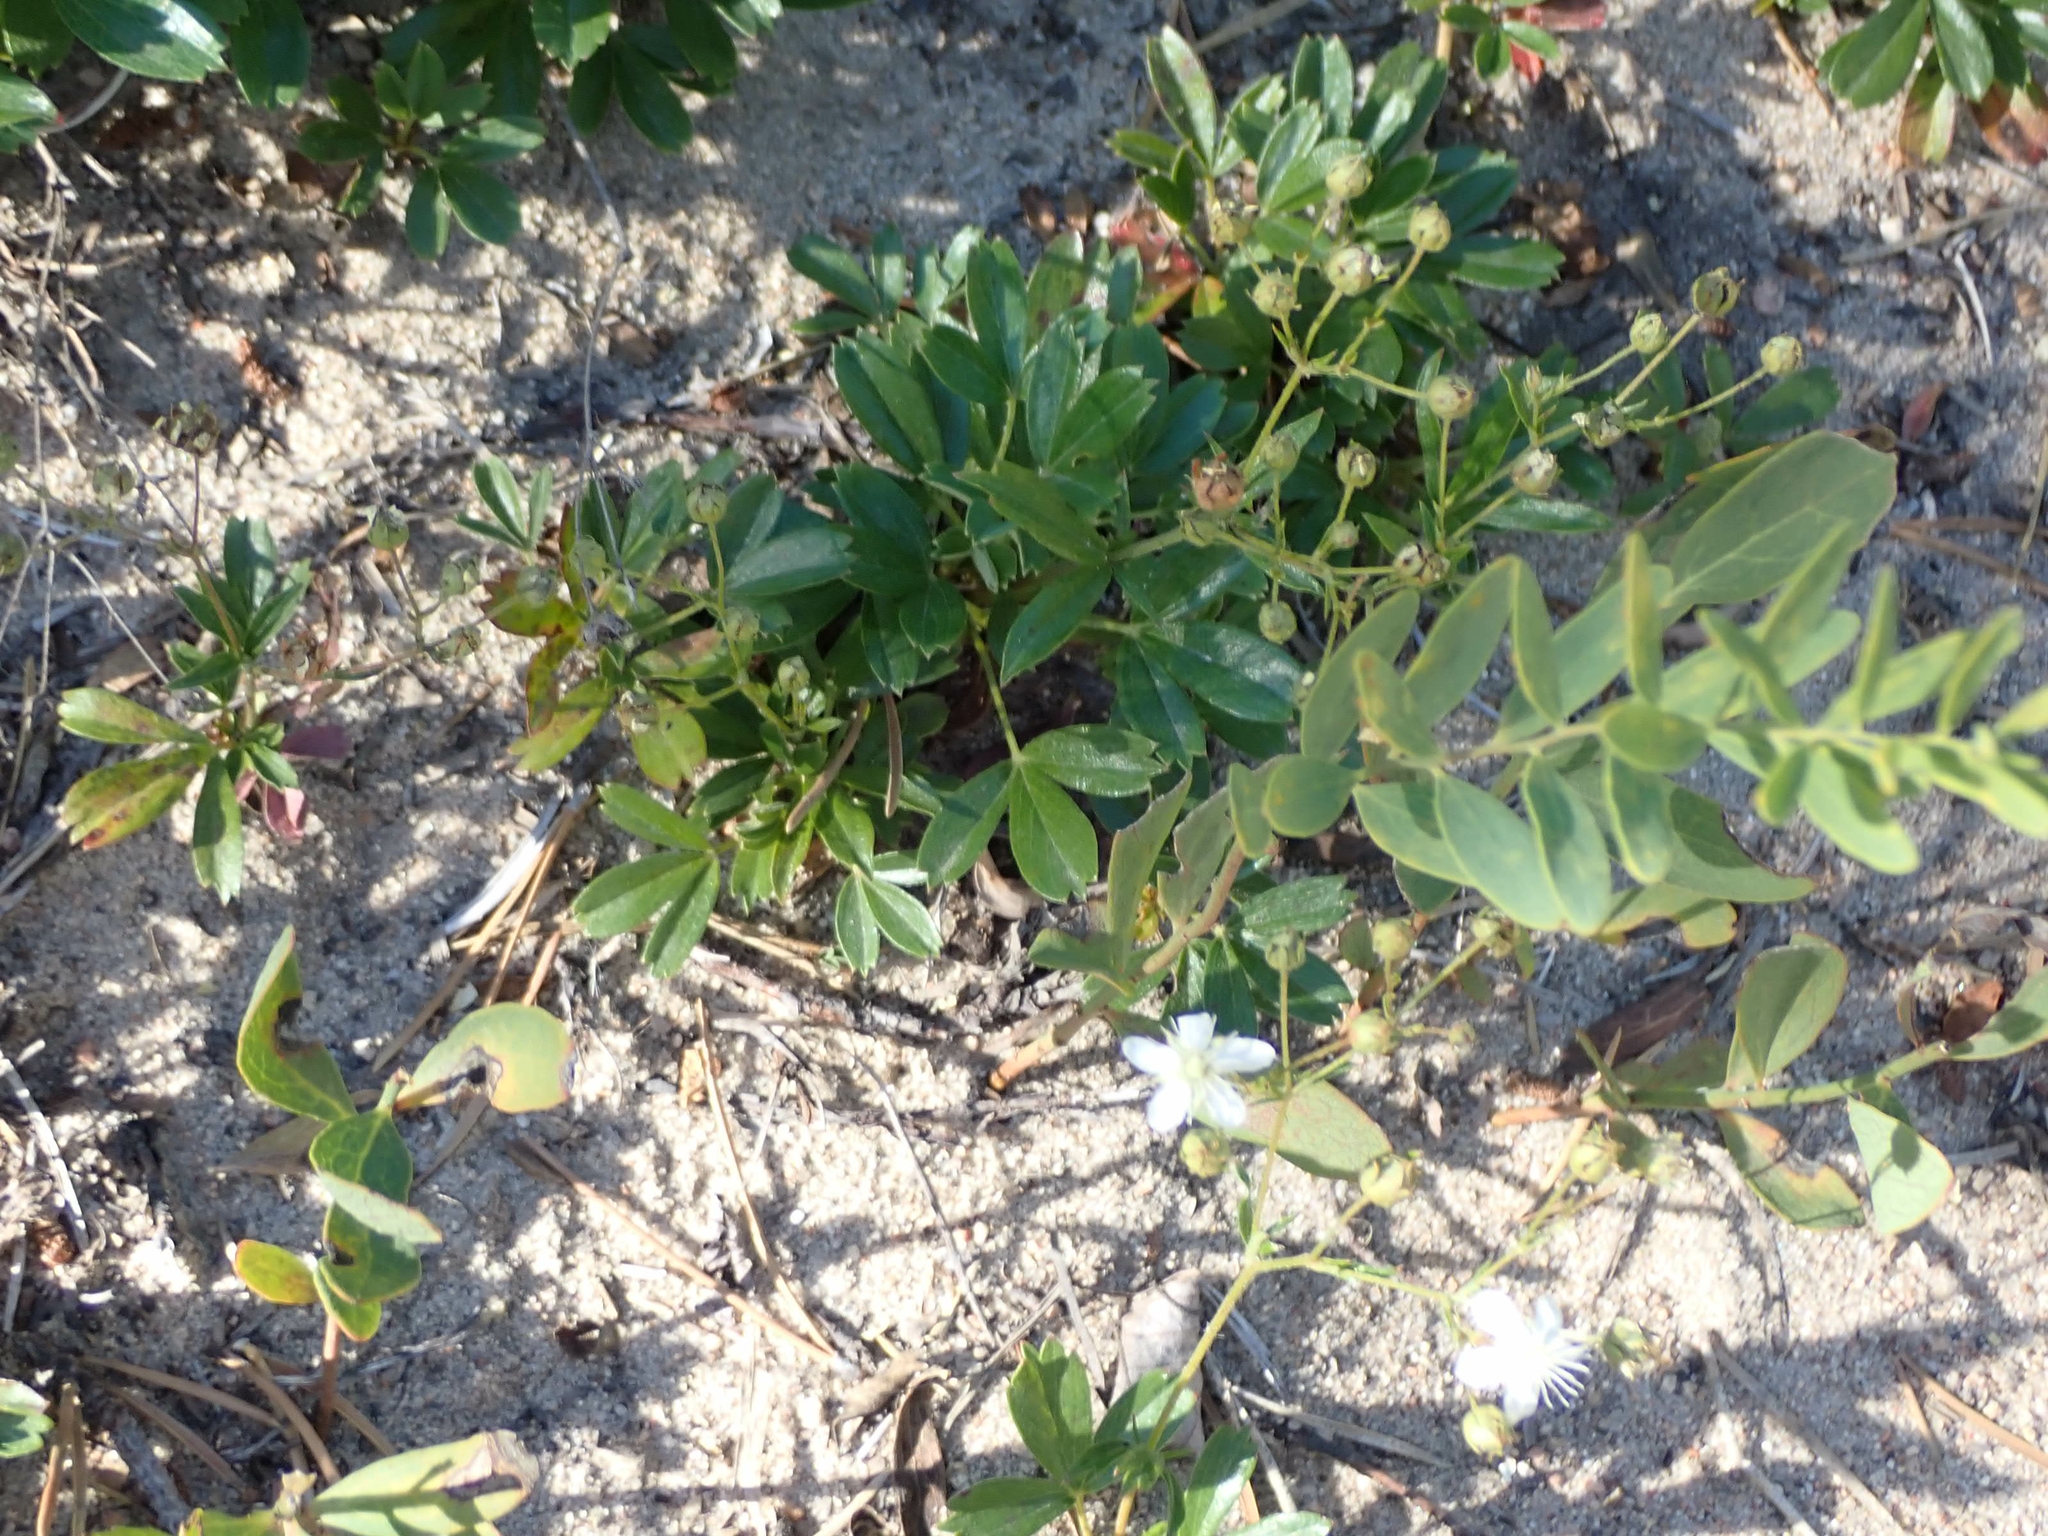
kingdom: Plantae
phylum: Tracheophyta
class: Magnoliopsida
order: Rosales
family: Rosaceae
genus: Sibbaldia
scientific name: Sibbaldia tridentata
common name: Three-toothed cinquefoil
